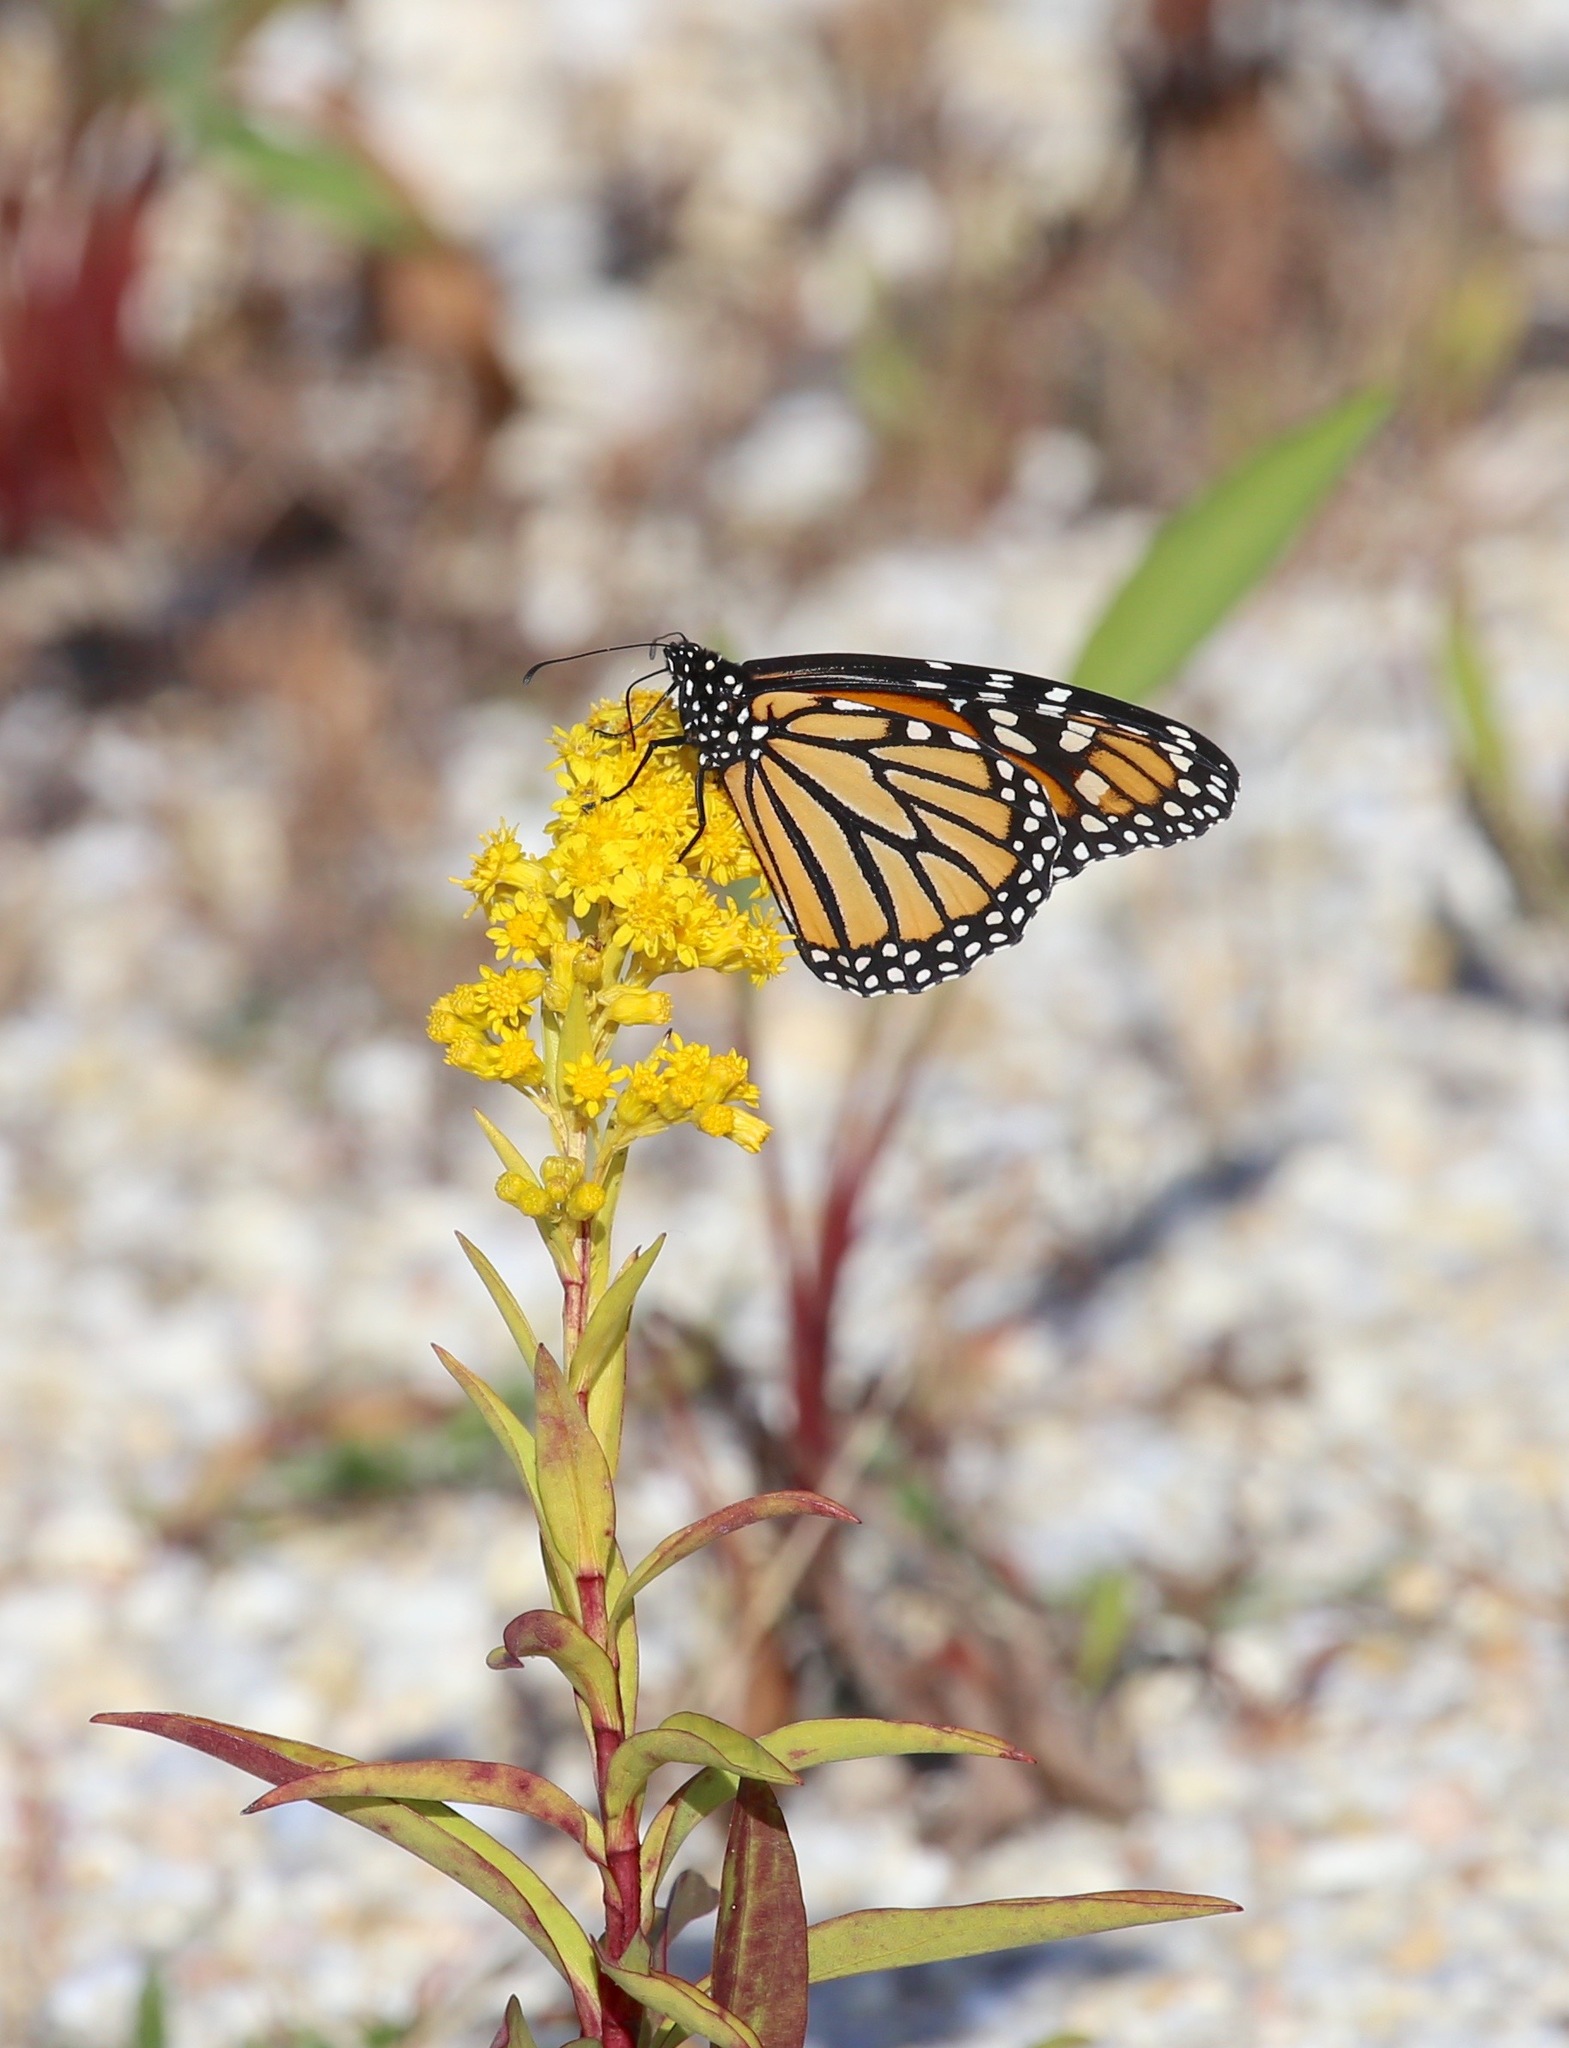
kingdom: Animalia
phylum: Arthropoda
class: Insecta
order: Lepidoptera
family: Nymphalidae
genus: Danaus
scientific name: Danaus plexippus
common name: Monarch
